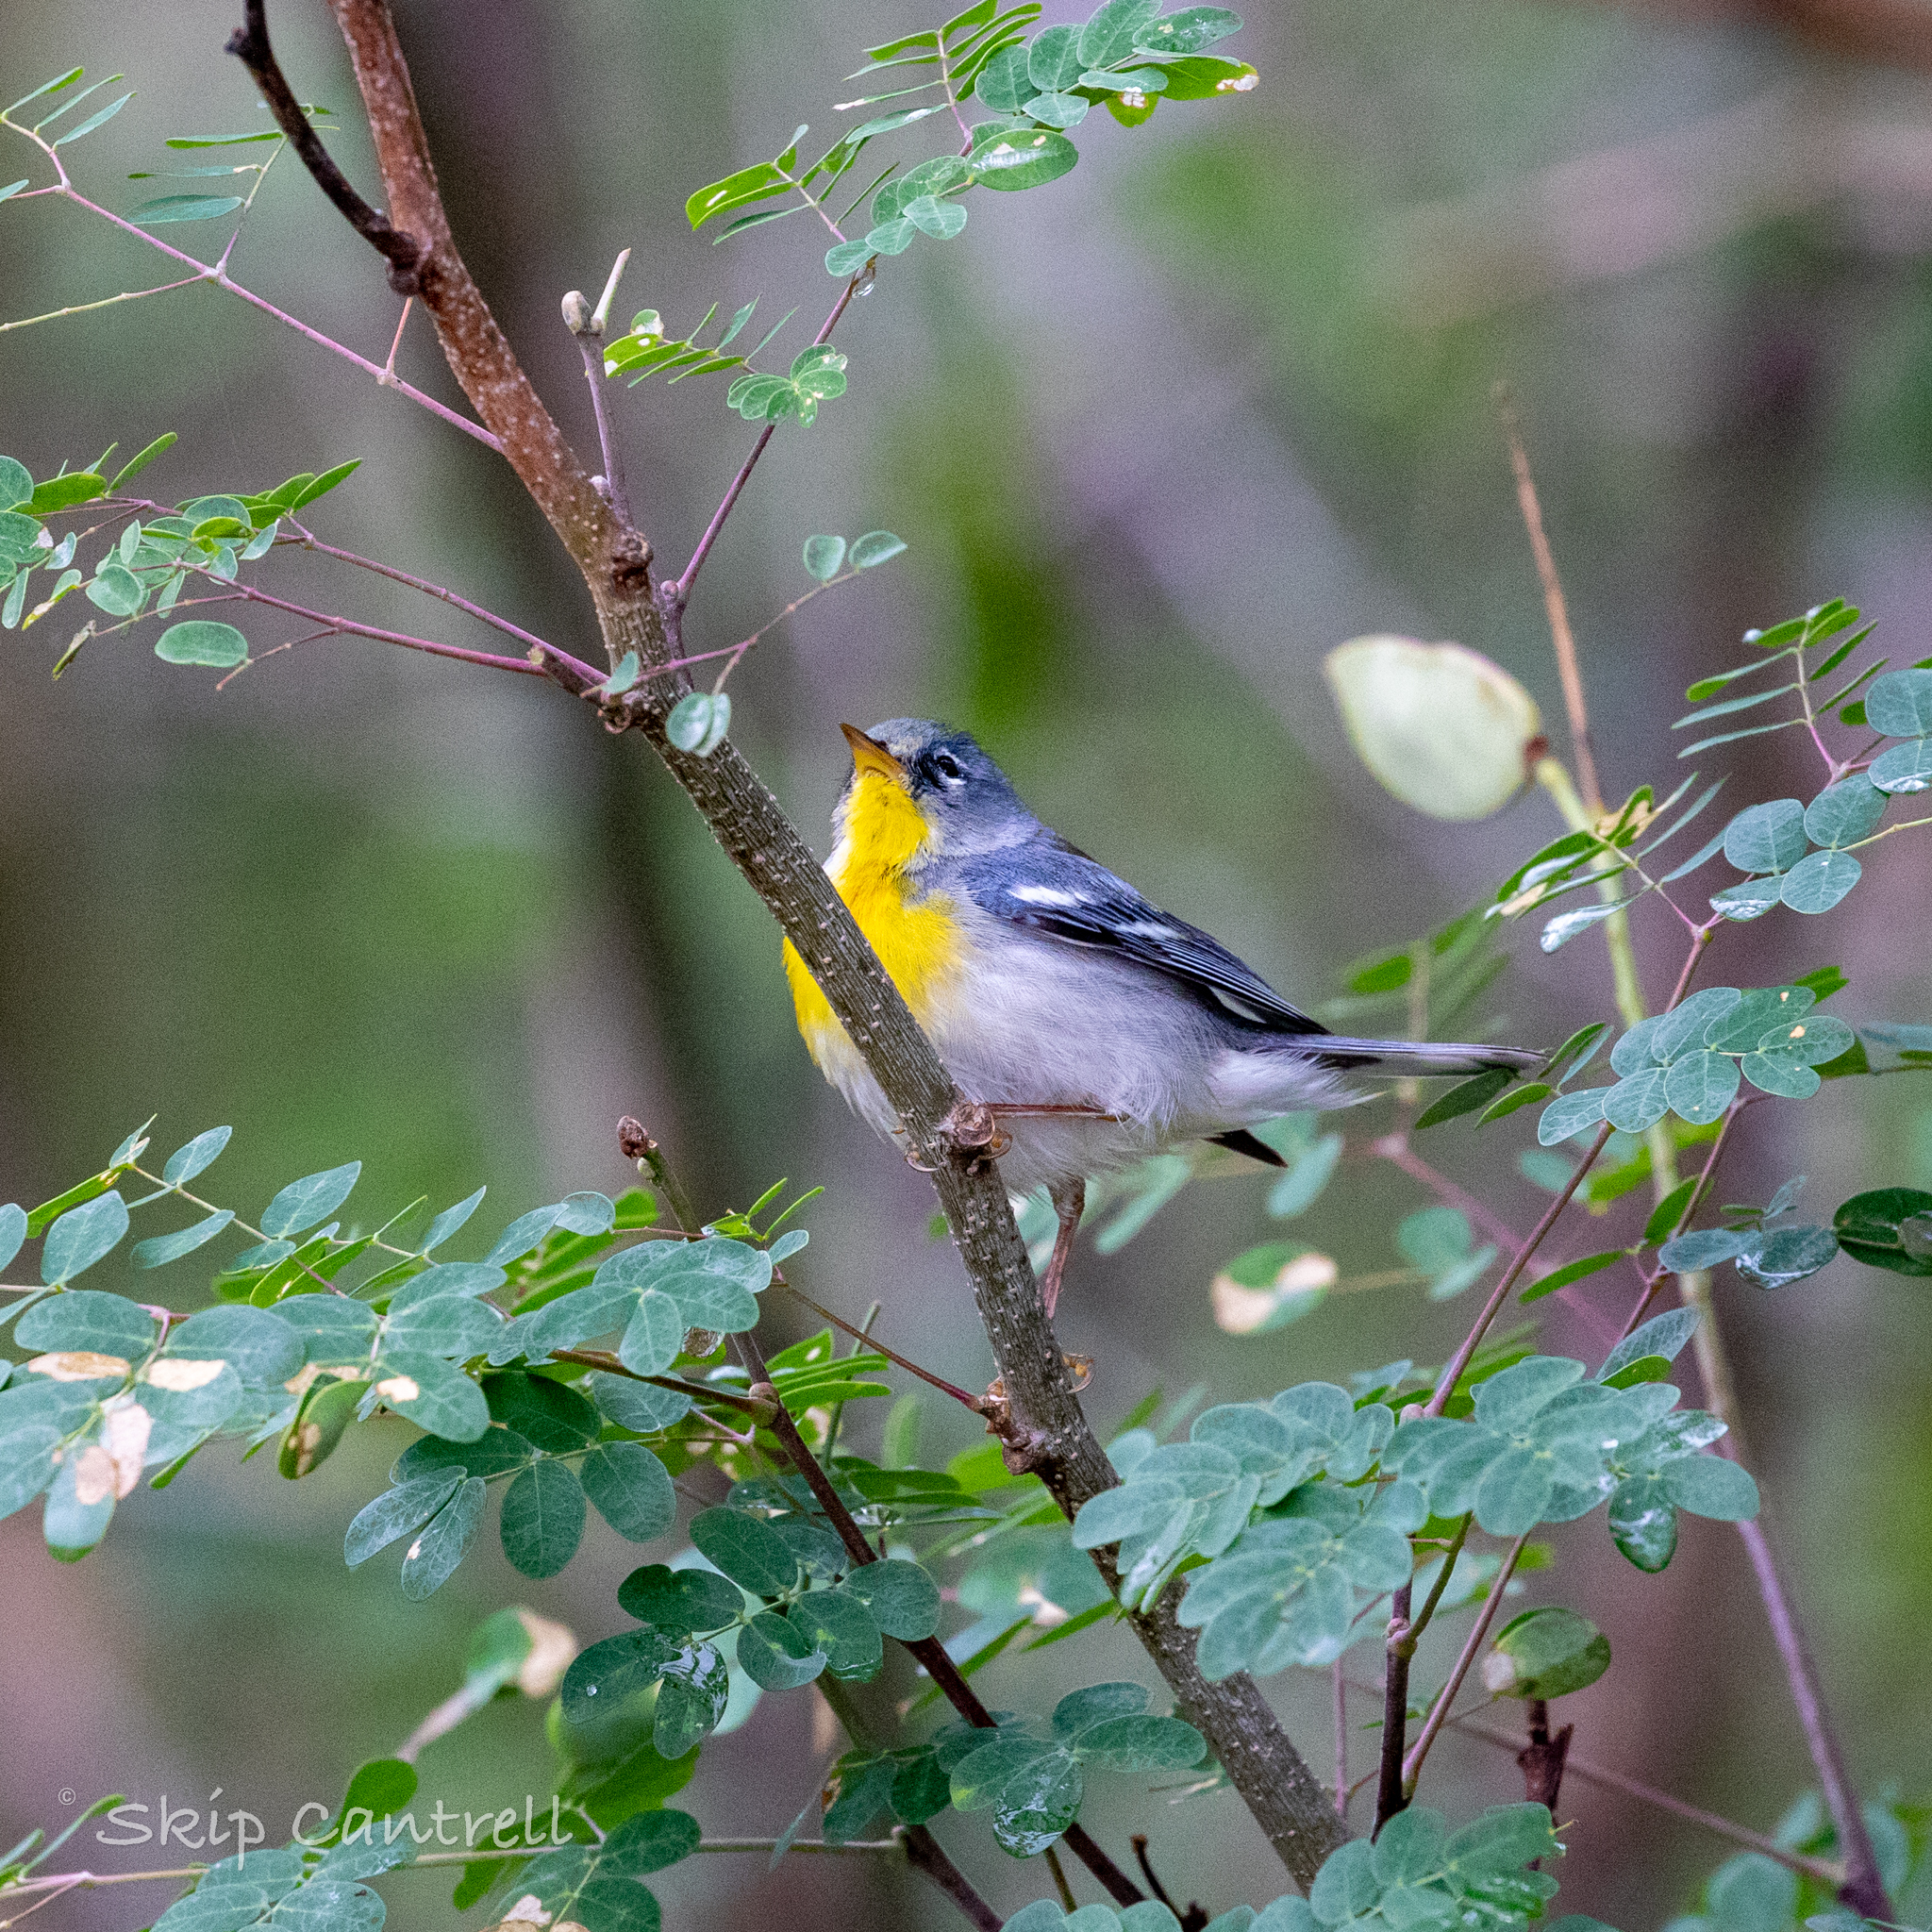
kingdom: Animalia
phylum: Chordata
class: Aves
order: Passeriformes
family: Parulidae
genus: Setophaga
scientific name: Setophaga americana
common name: Northern parula
